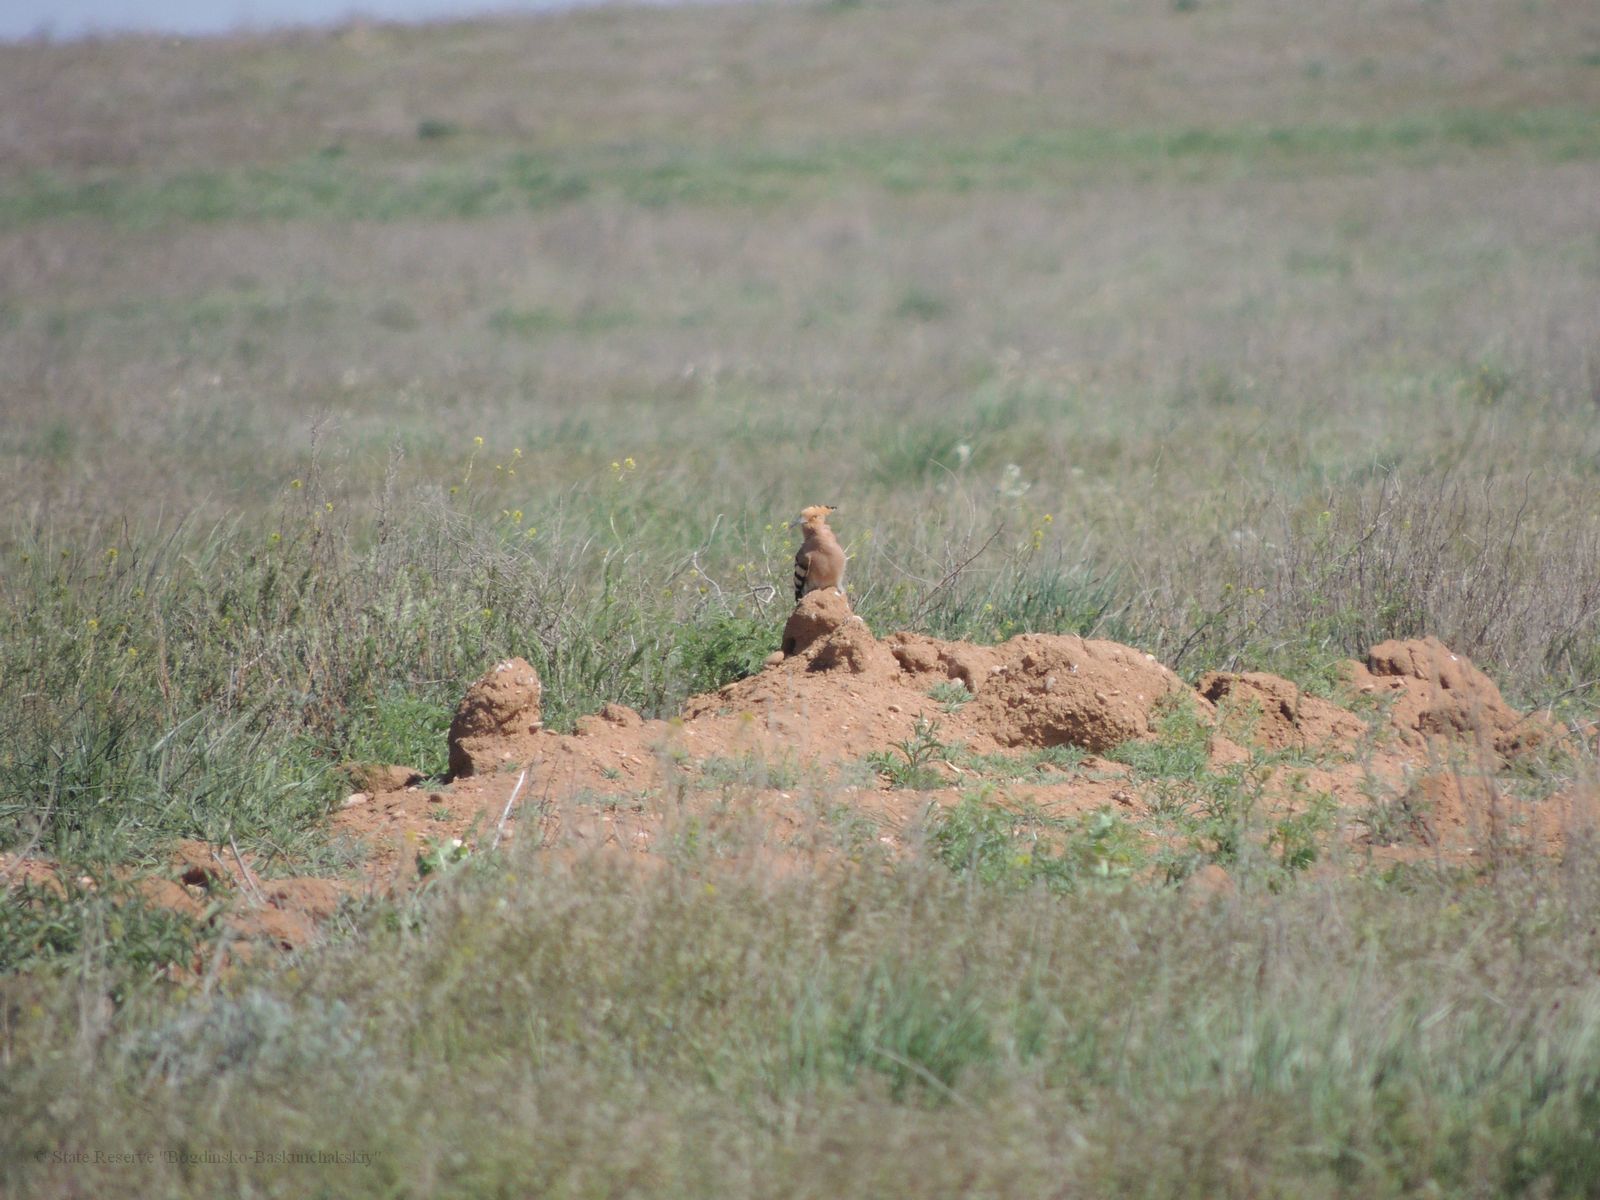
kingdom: Animalia
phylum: Chordata
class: Aves
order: Bucerotiformes
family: Upupidae
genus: Upupa
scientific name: Upupa epops
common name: Eurasian hoopoe
